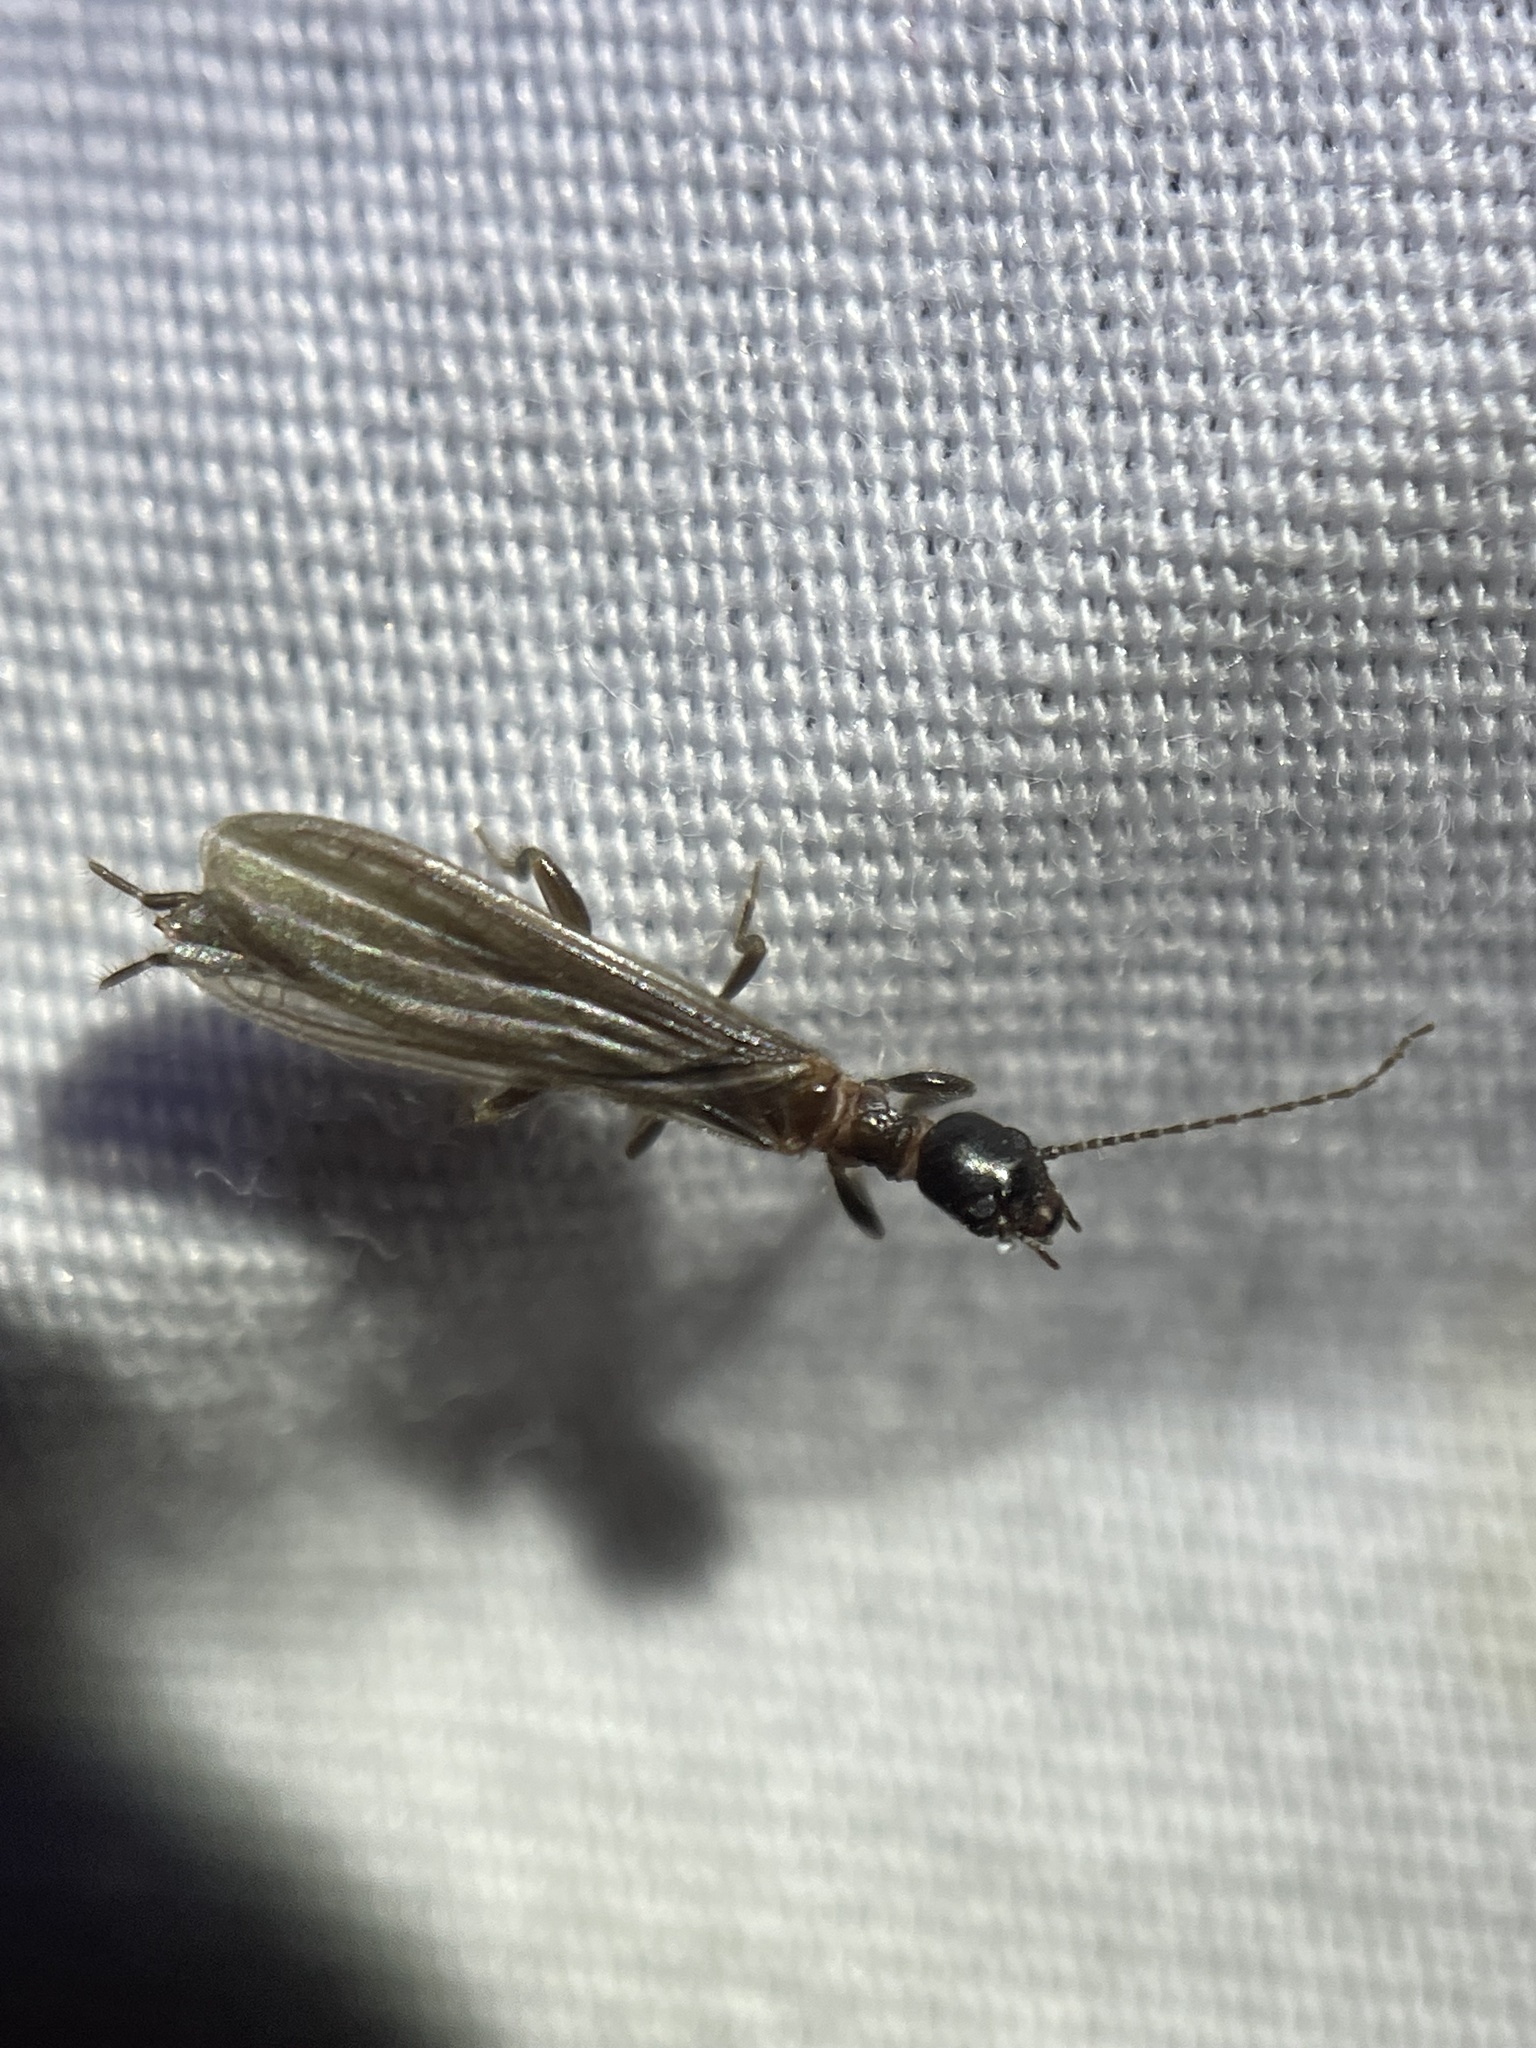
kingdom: Animalia
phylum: Arthropoda
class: Insecta
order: Embioptera
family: Oligotomidae
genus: Oligotoma
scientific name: Oligotoma nigra
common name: Black webspinner
